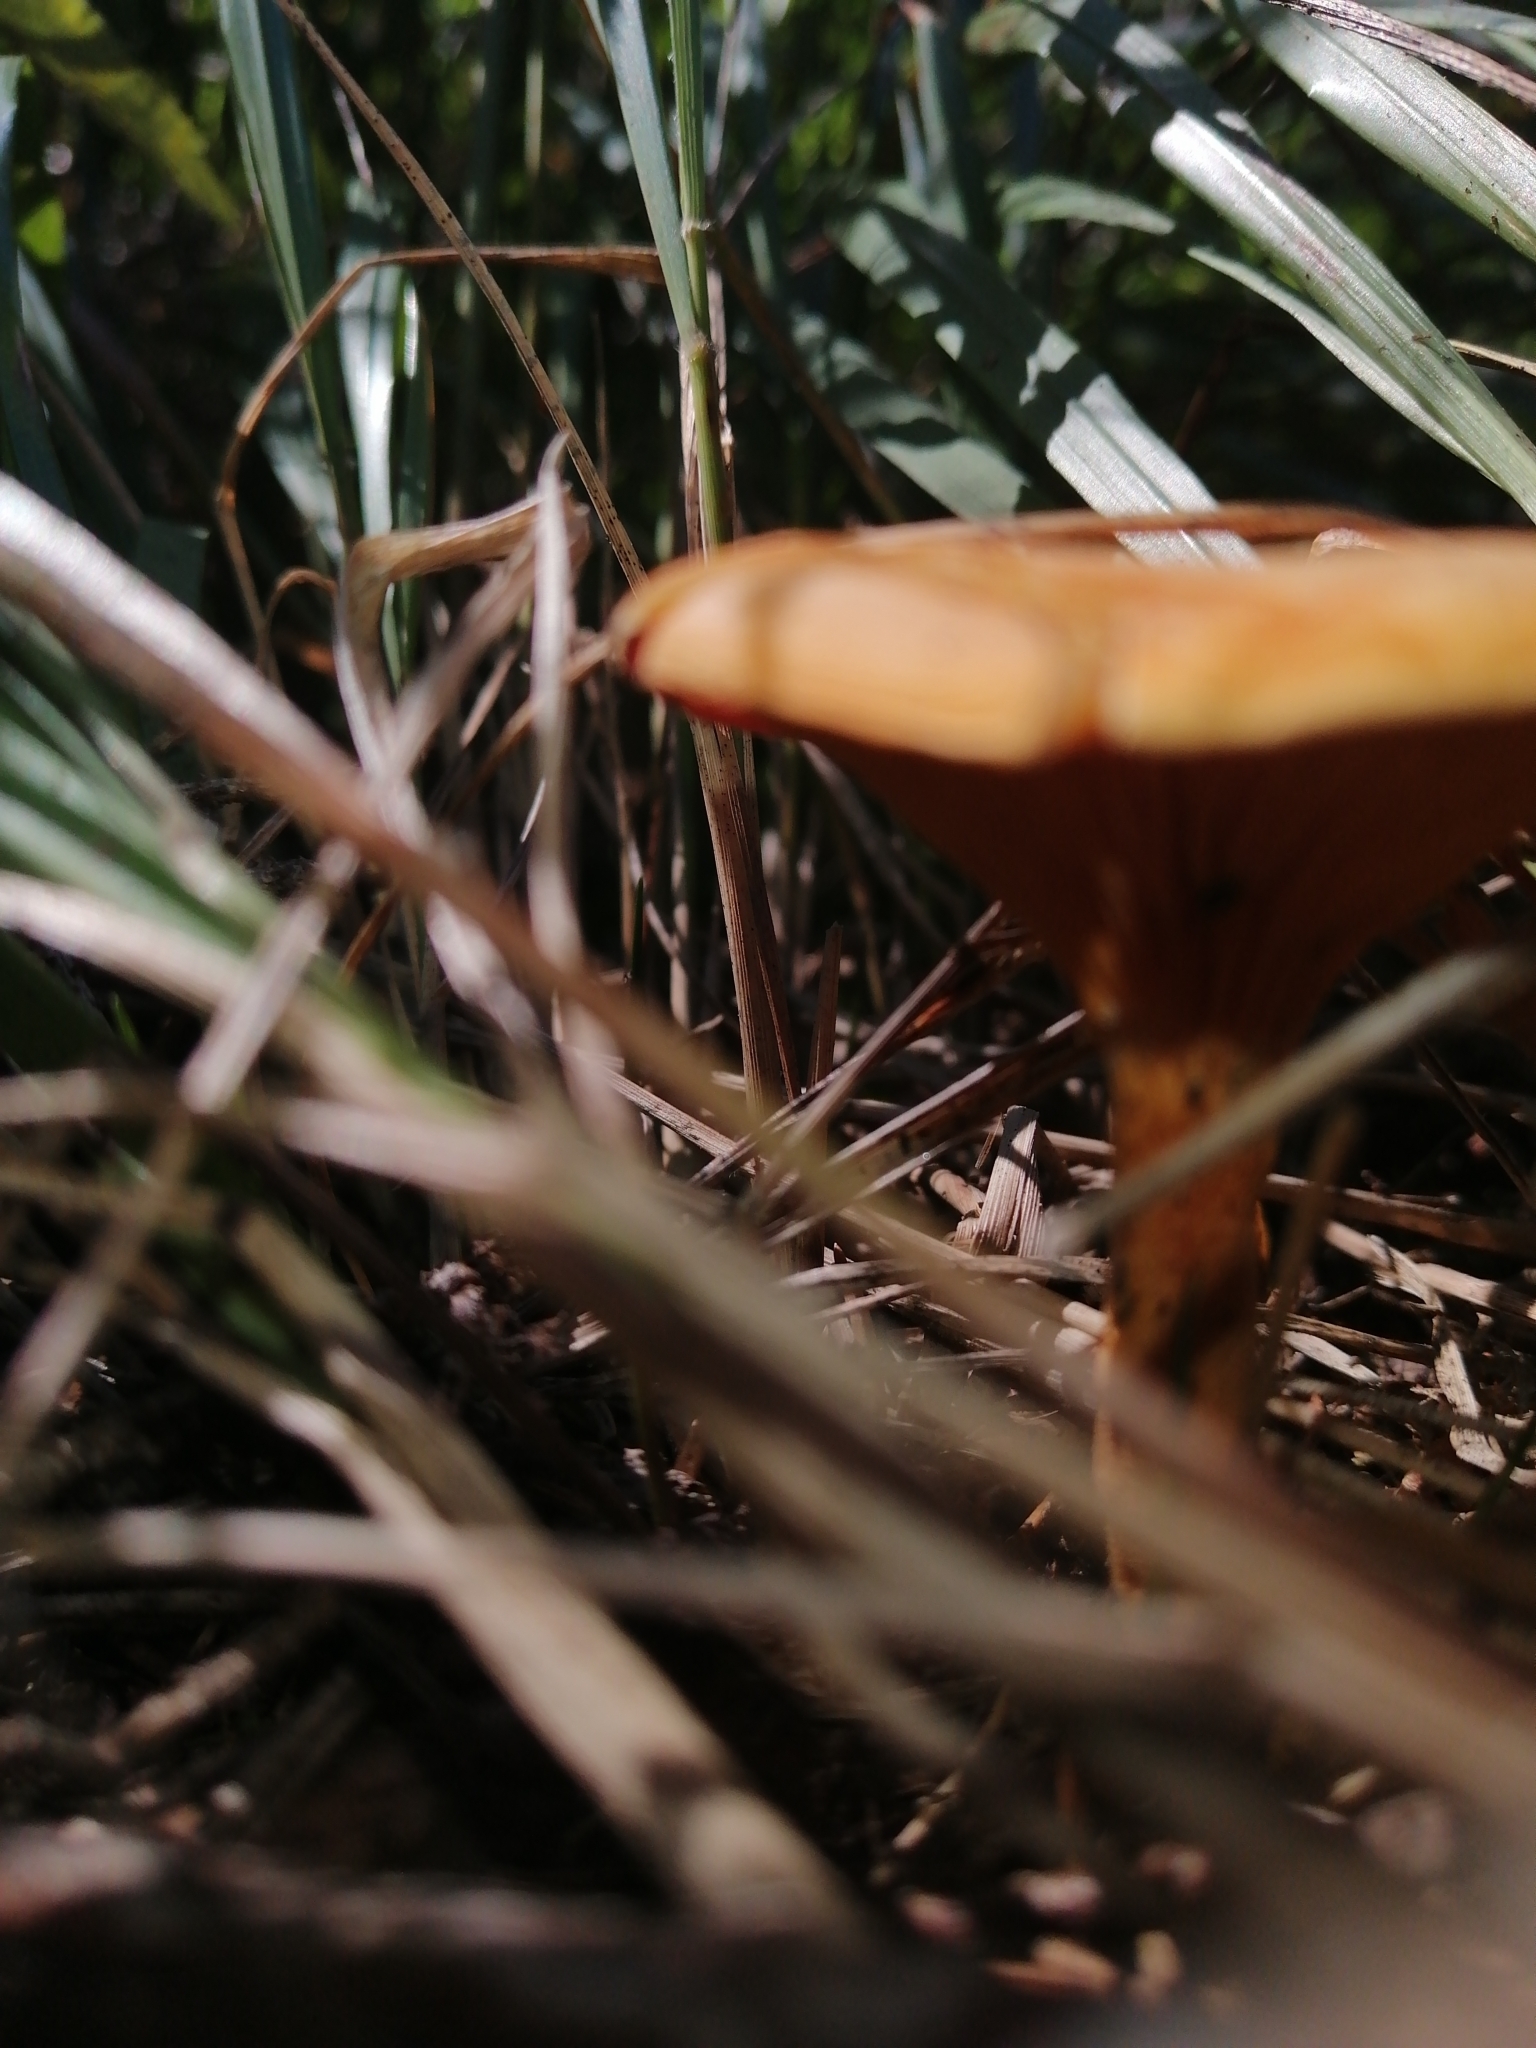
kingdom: Fungi
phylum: Basidiomycota
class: Agaricomycetes
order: Boletales
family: Hygrophoropsidaceae
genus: Hygrophoropsis
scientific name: Hygrophoropsis aurantiaca
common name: False chanterelle
